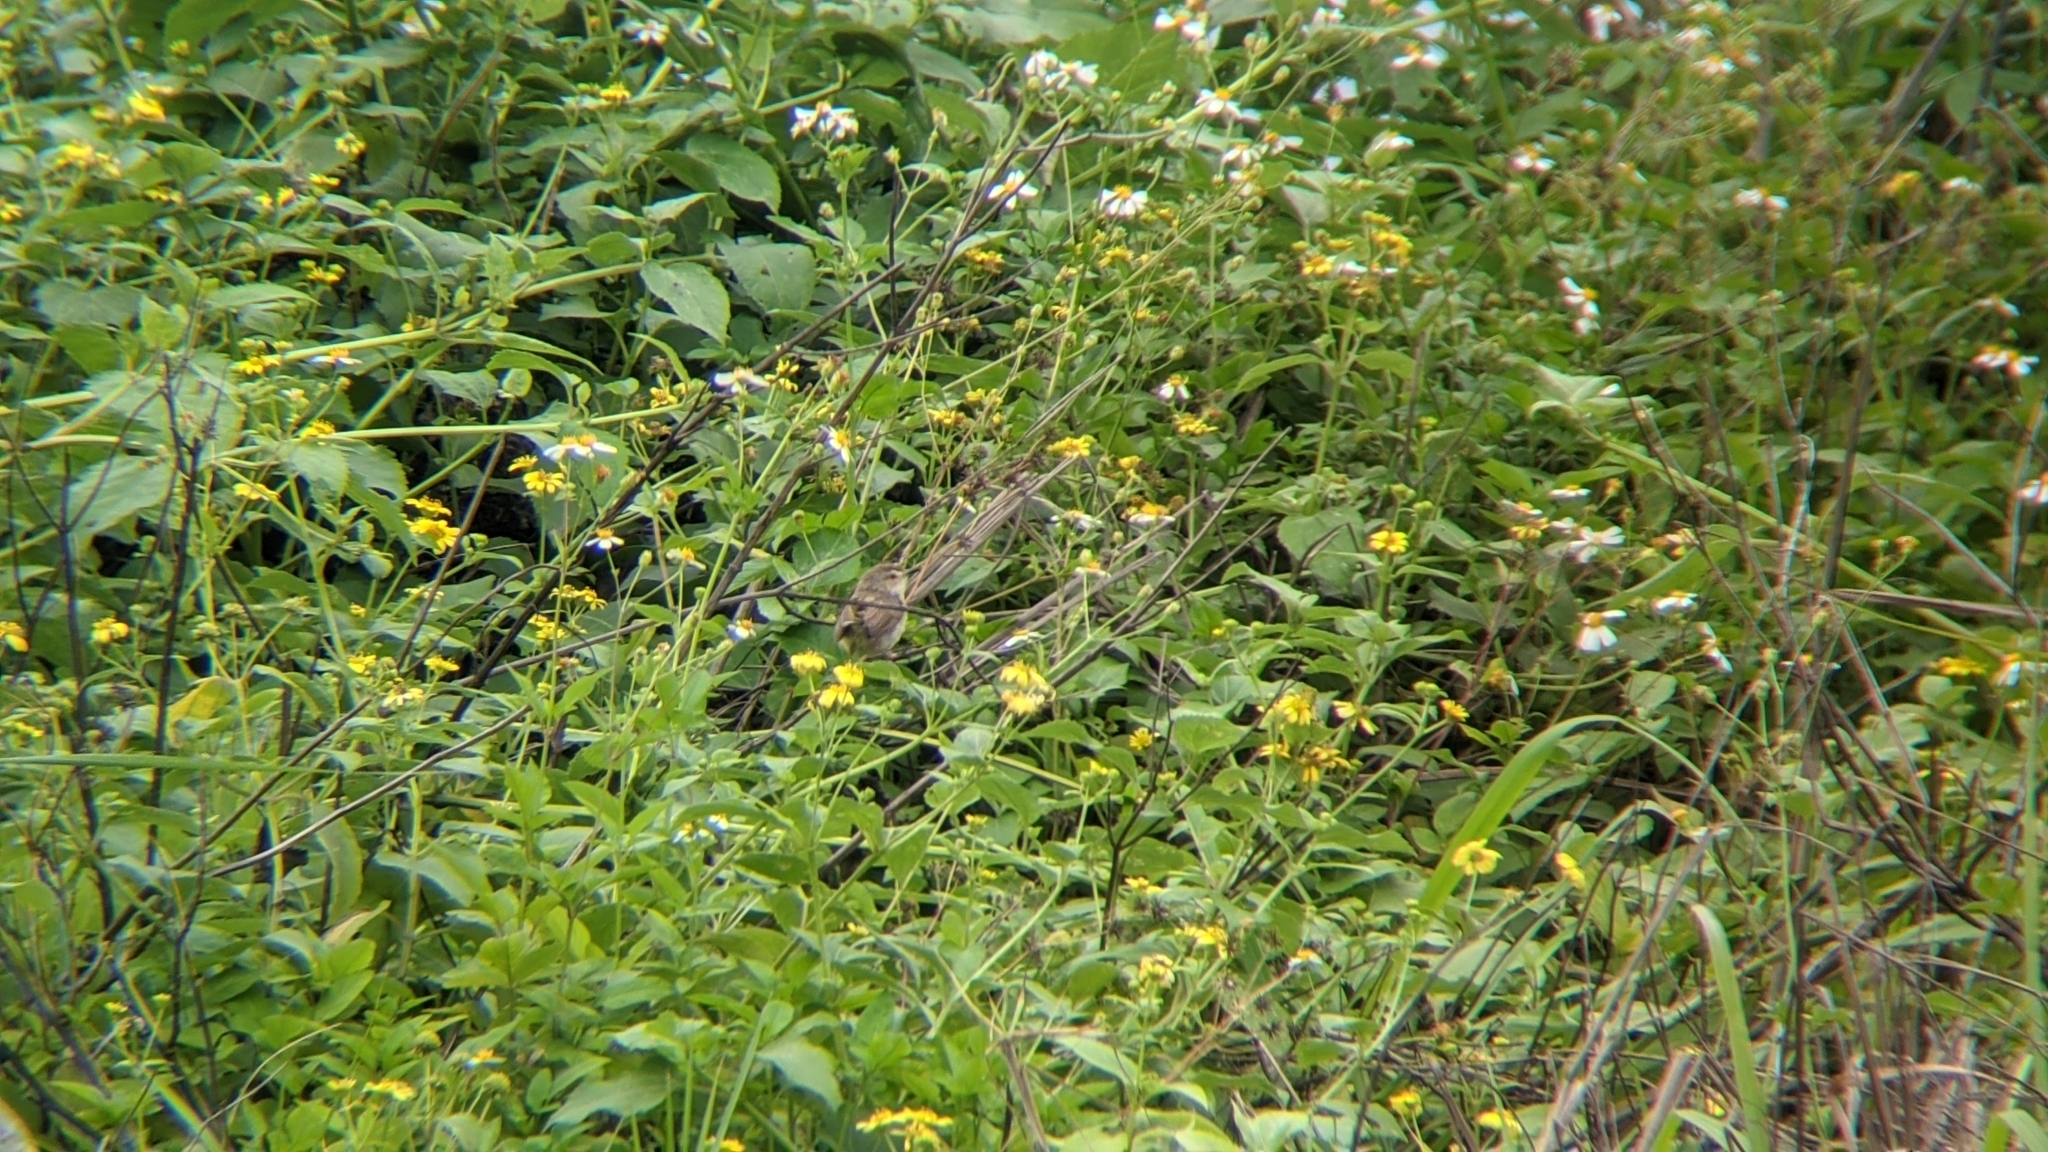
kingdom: Animalia
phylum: Chordata
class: Aves
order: Passeriformes
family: Cisticolidae
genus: Prinia
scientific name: Prinia inornata
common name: Plain prinia
